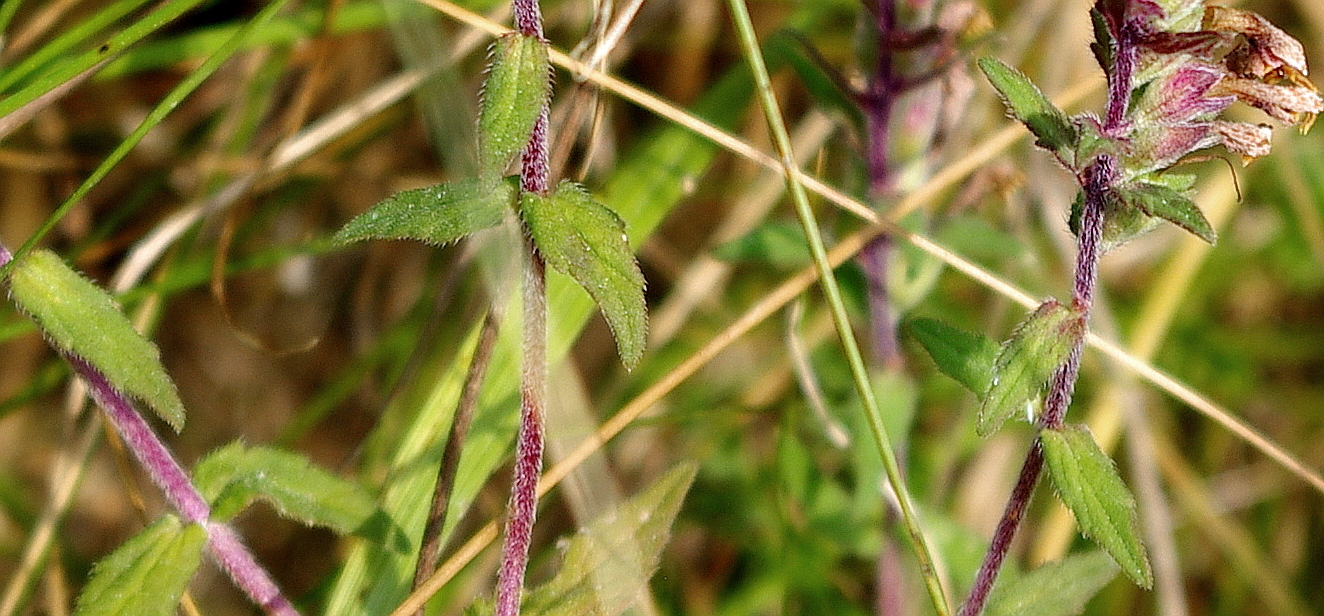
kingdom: Plantae
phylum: Tracheophyta
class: Magnoliopsida
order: Lamiales
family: Orobanchaceae
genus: Odontites
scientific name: Odontites vulgaris
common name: Broomrape
